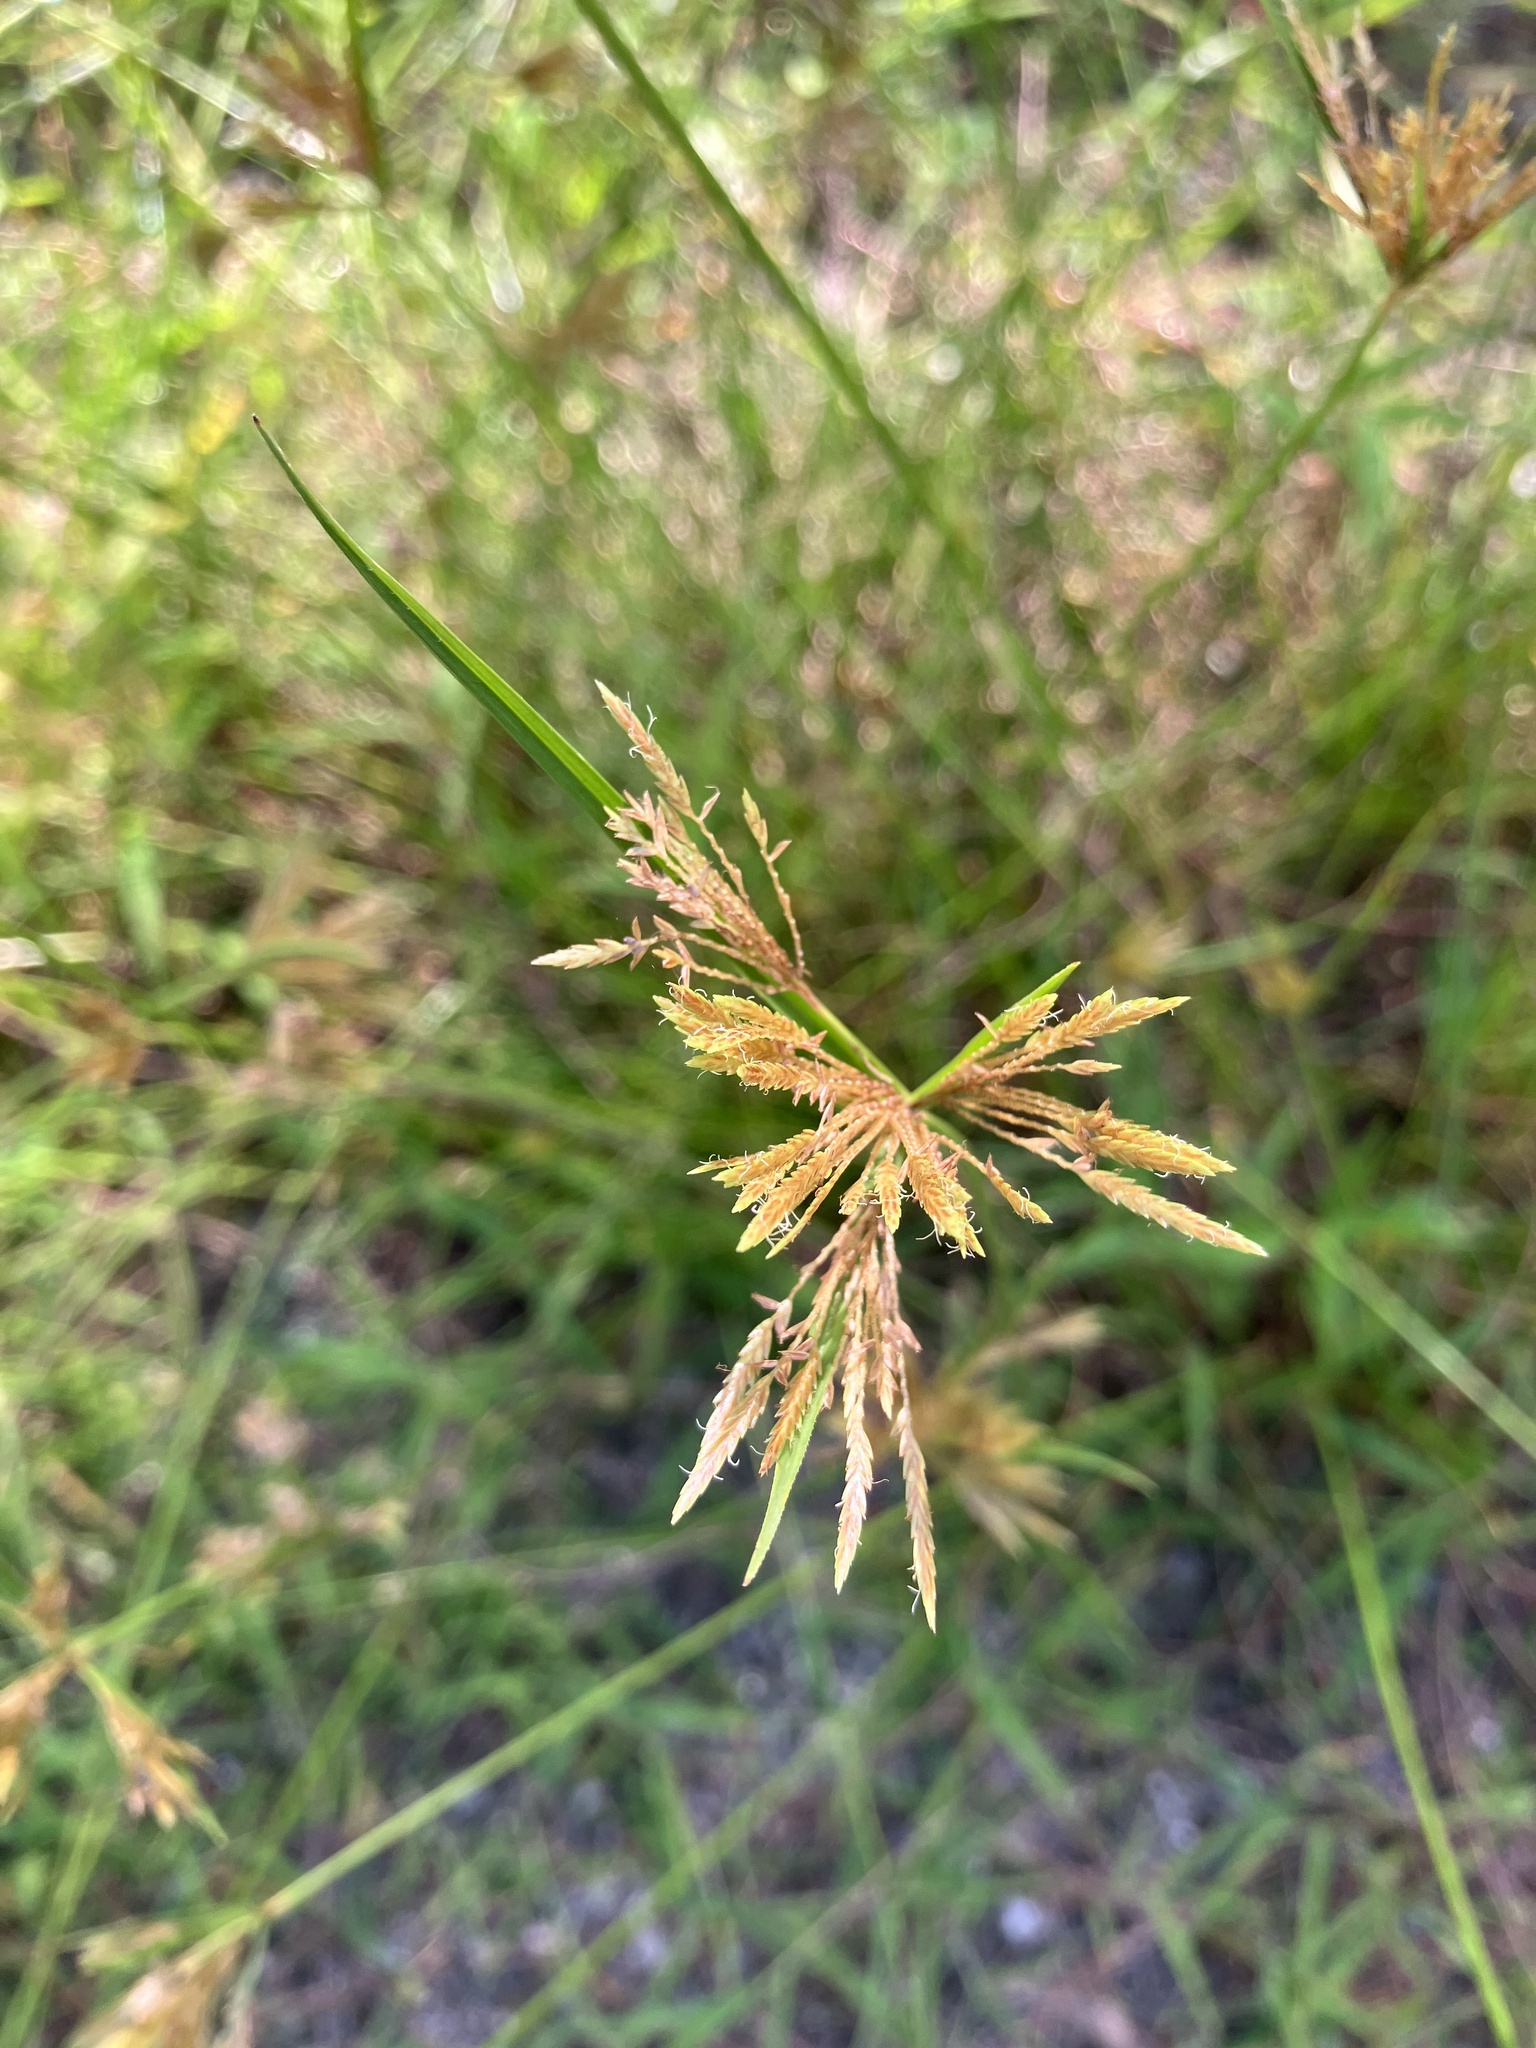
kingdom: Plantae
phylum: Tracheophyta
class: Liliopsida
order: Poales
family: Cyperaceae
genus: Cyperus
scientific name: Cyperus polystachyos
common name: Bunchy flat sedge
